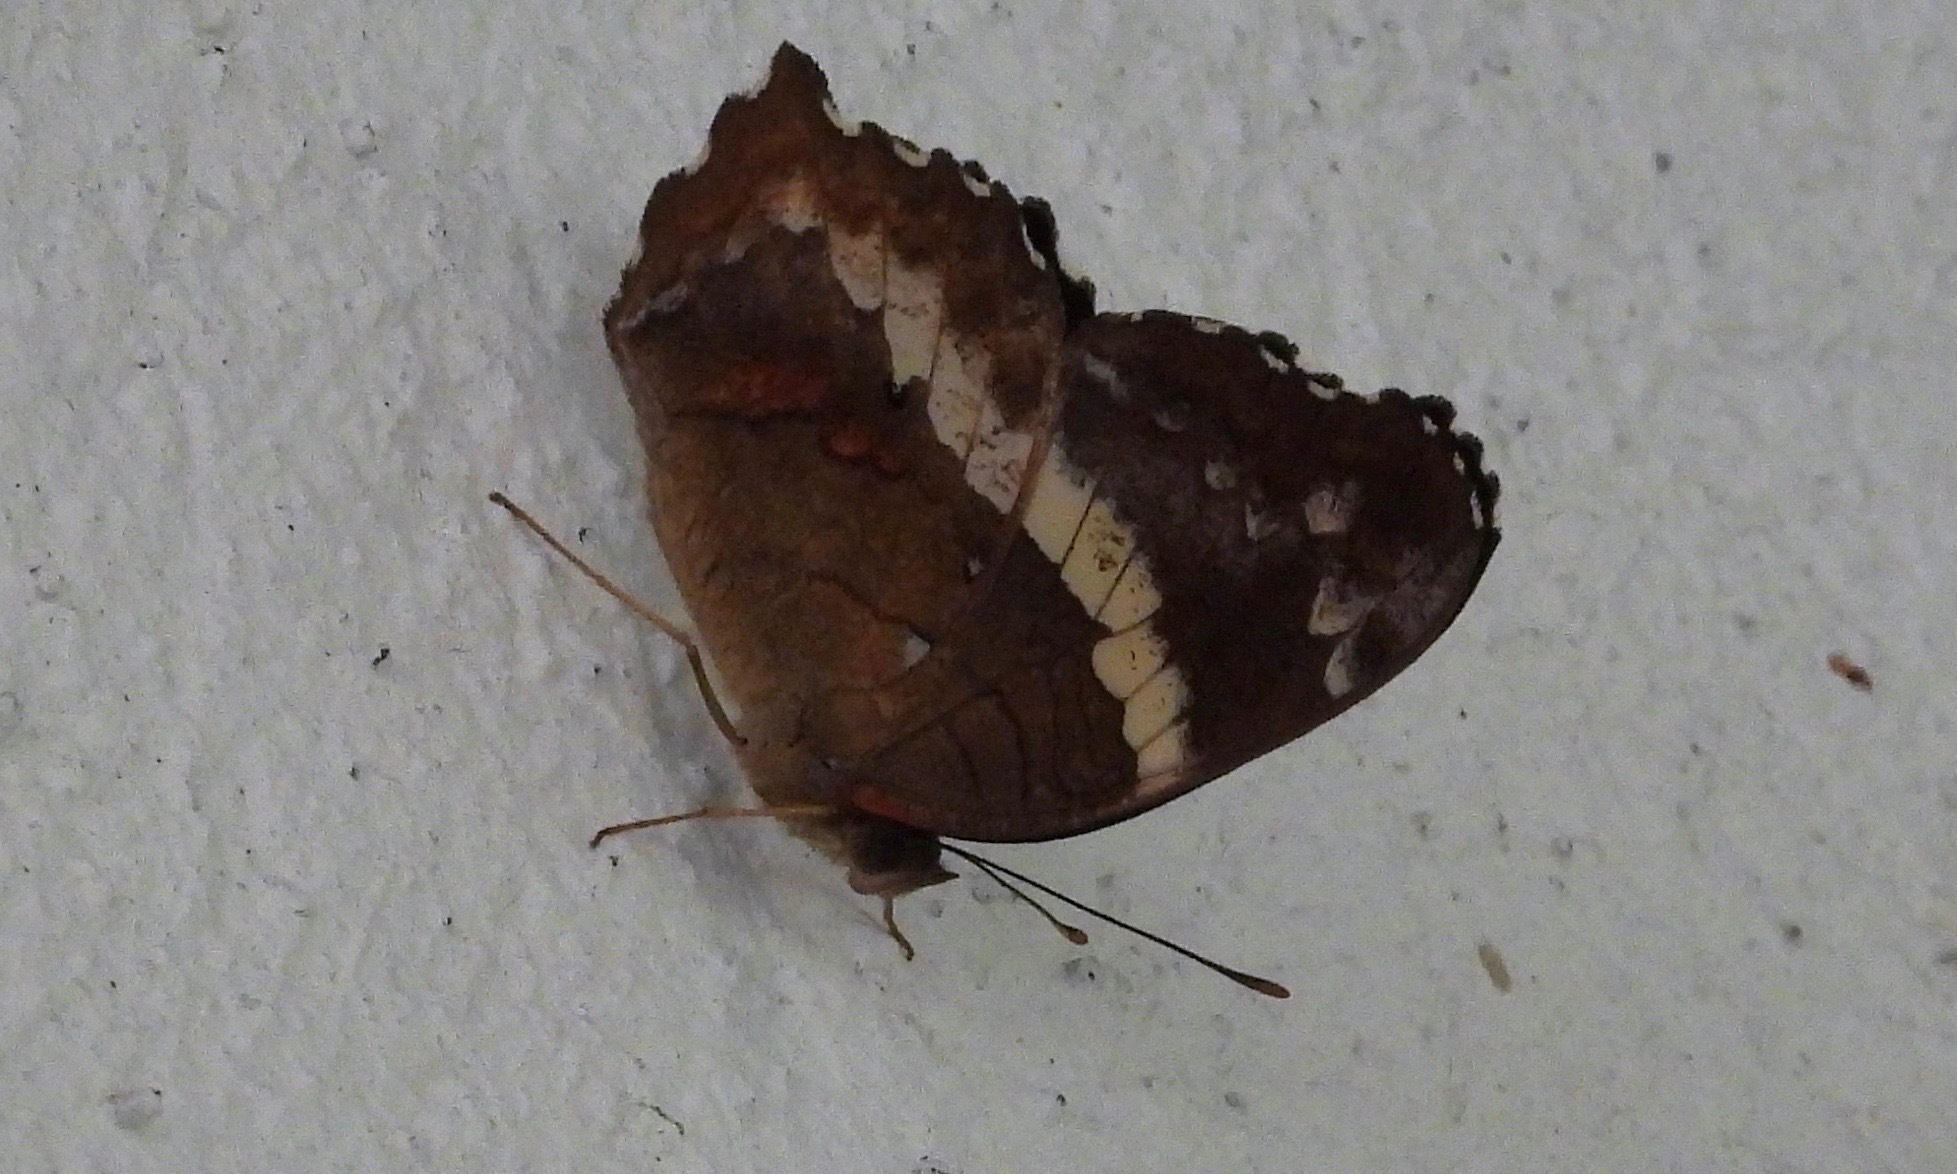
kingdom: Animalia
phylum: Arthropoda
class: Insecta
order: Lepidoptera
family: Nymphalidae
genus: Anartia
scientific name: Anartia fatima
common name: Banded peacock
